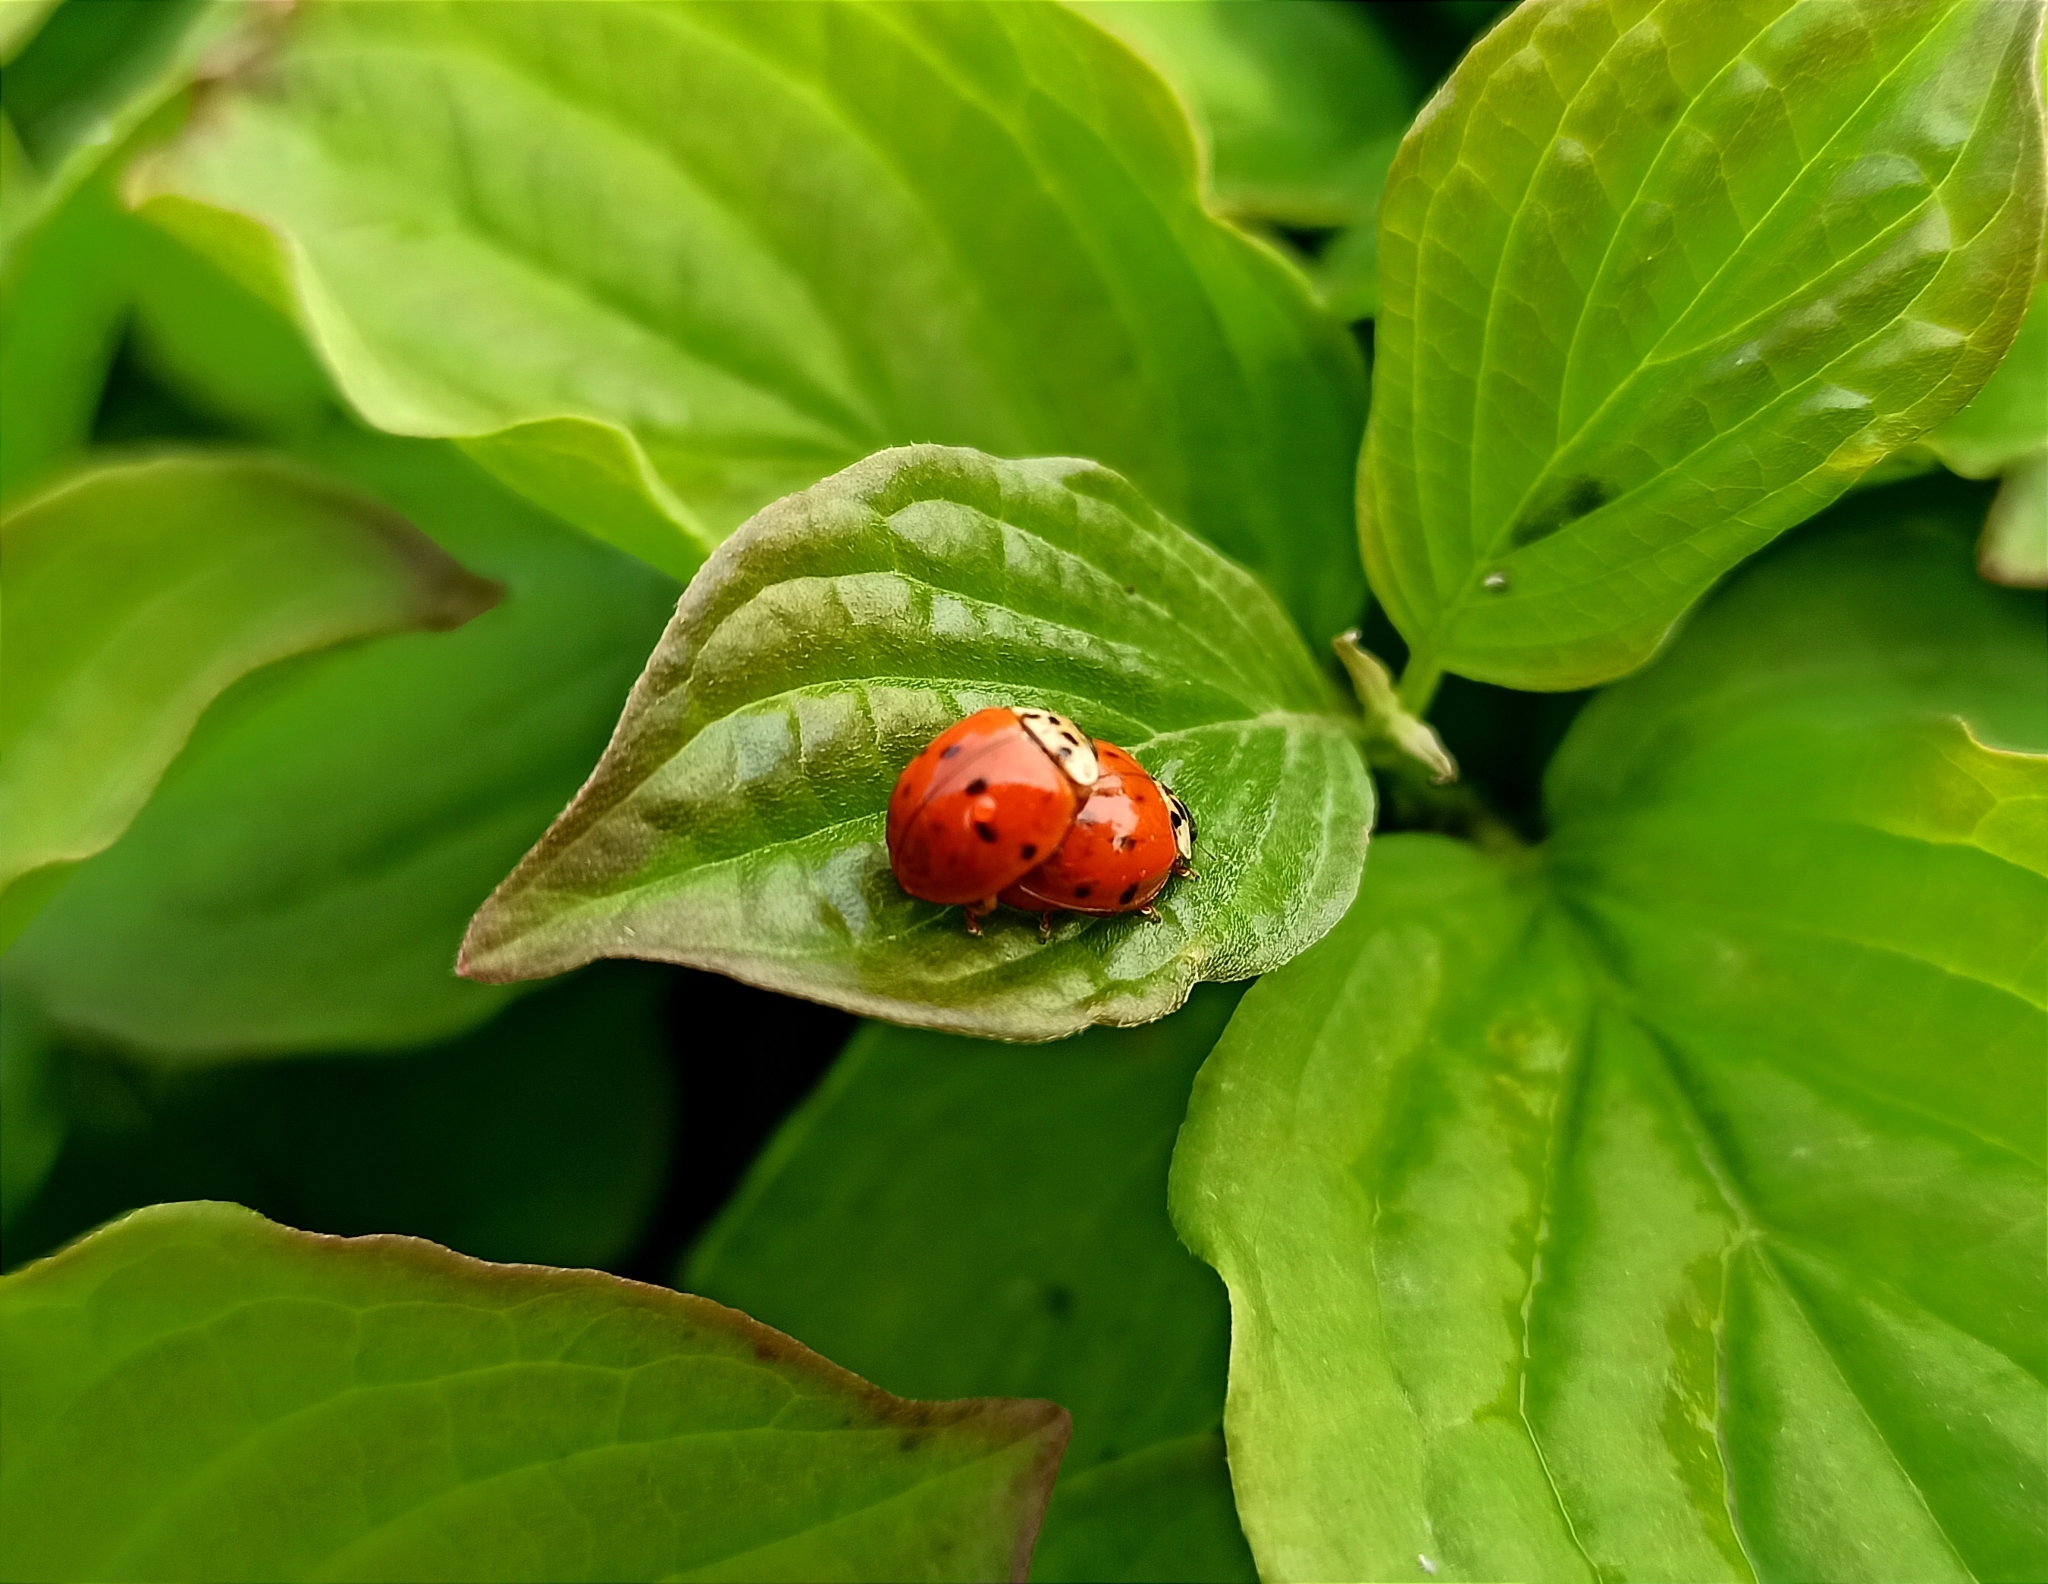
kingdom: Animalia
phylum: Arthropoda
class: Insecta
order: Coleoptera
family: Coccinellidae
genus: Harmonia
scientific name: Harmonia axyridis
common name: Harlequin ladybird
